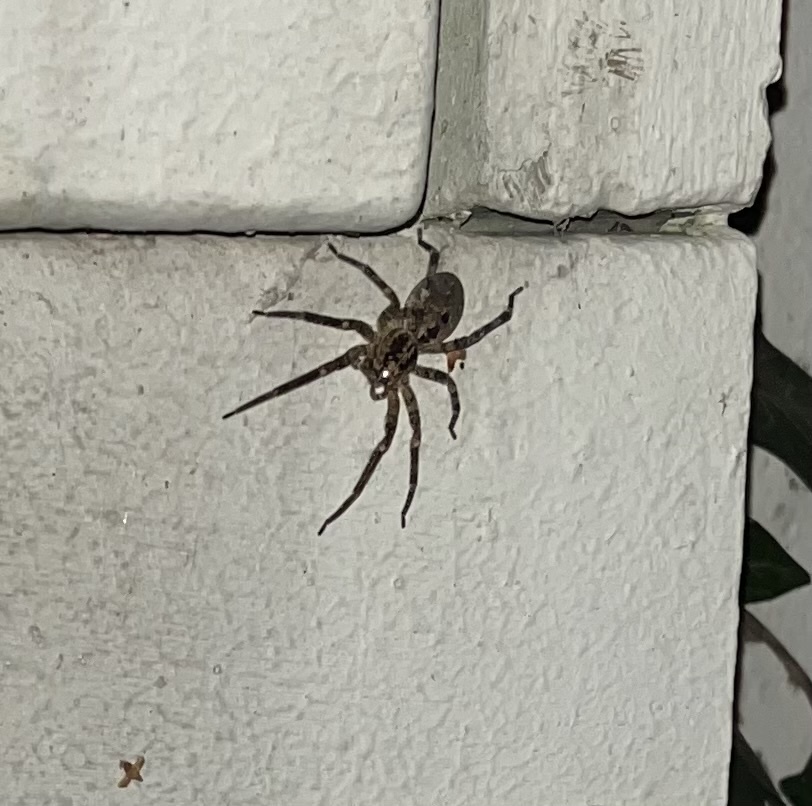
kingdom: Animalia
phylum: Arthropoda
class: Arachnida
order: Araneae
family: Zoropsidae
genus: Zoropsis
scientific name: Zoropsis spinimana
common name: Zoropsid spider
